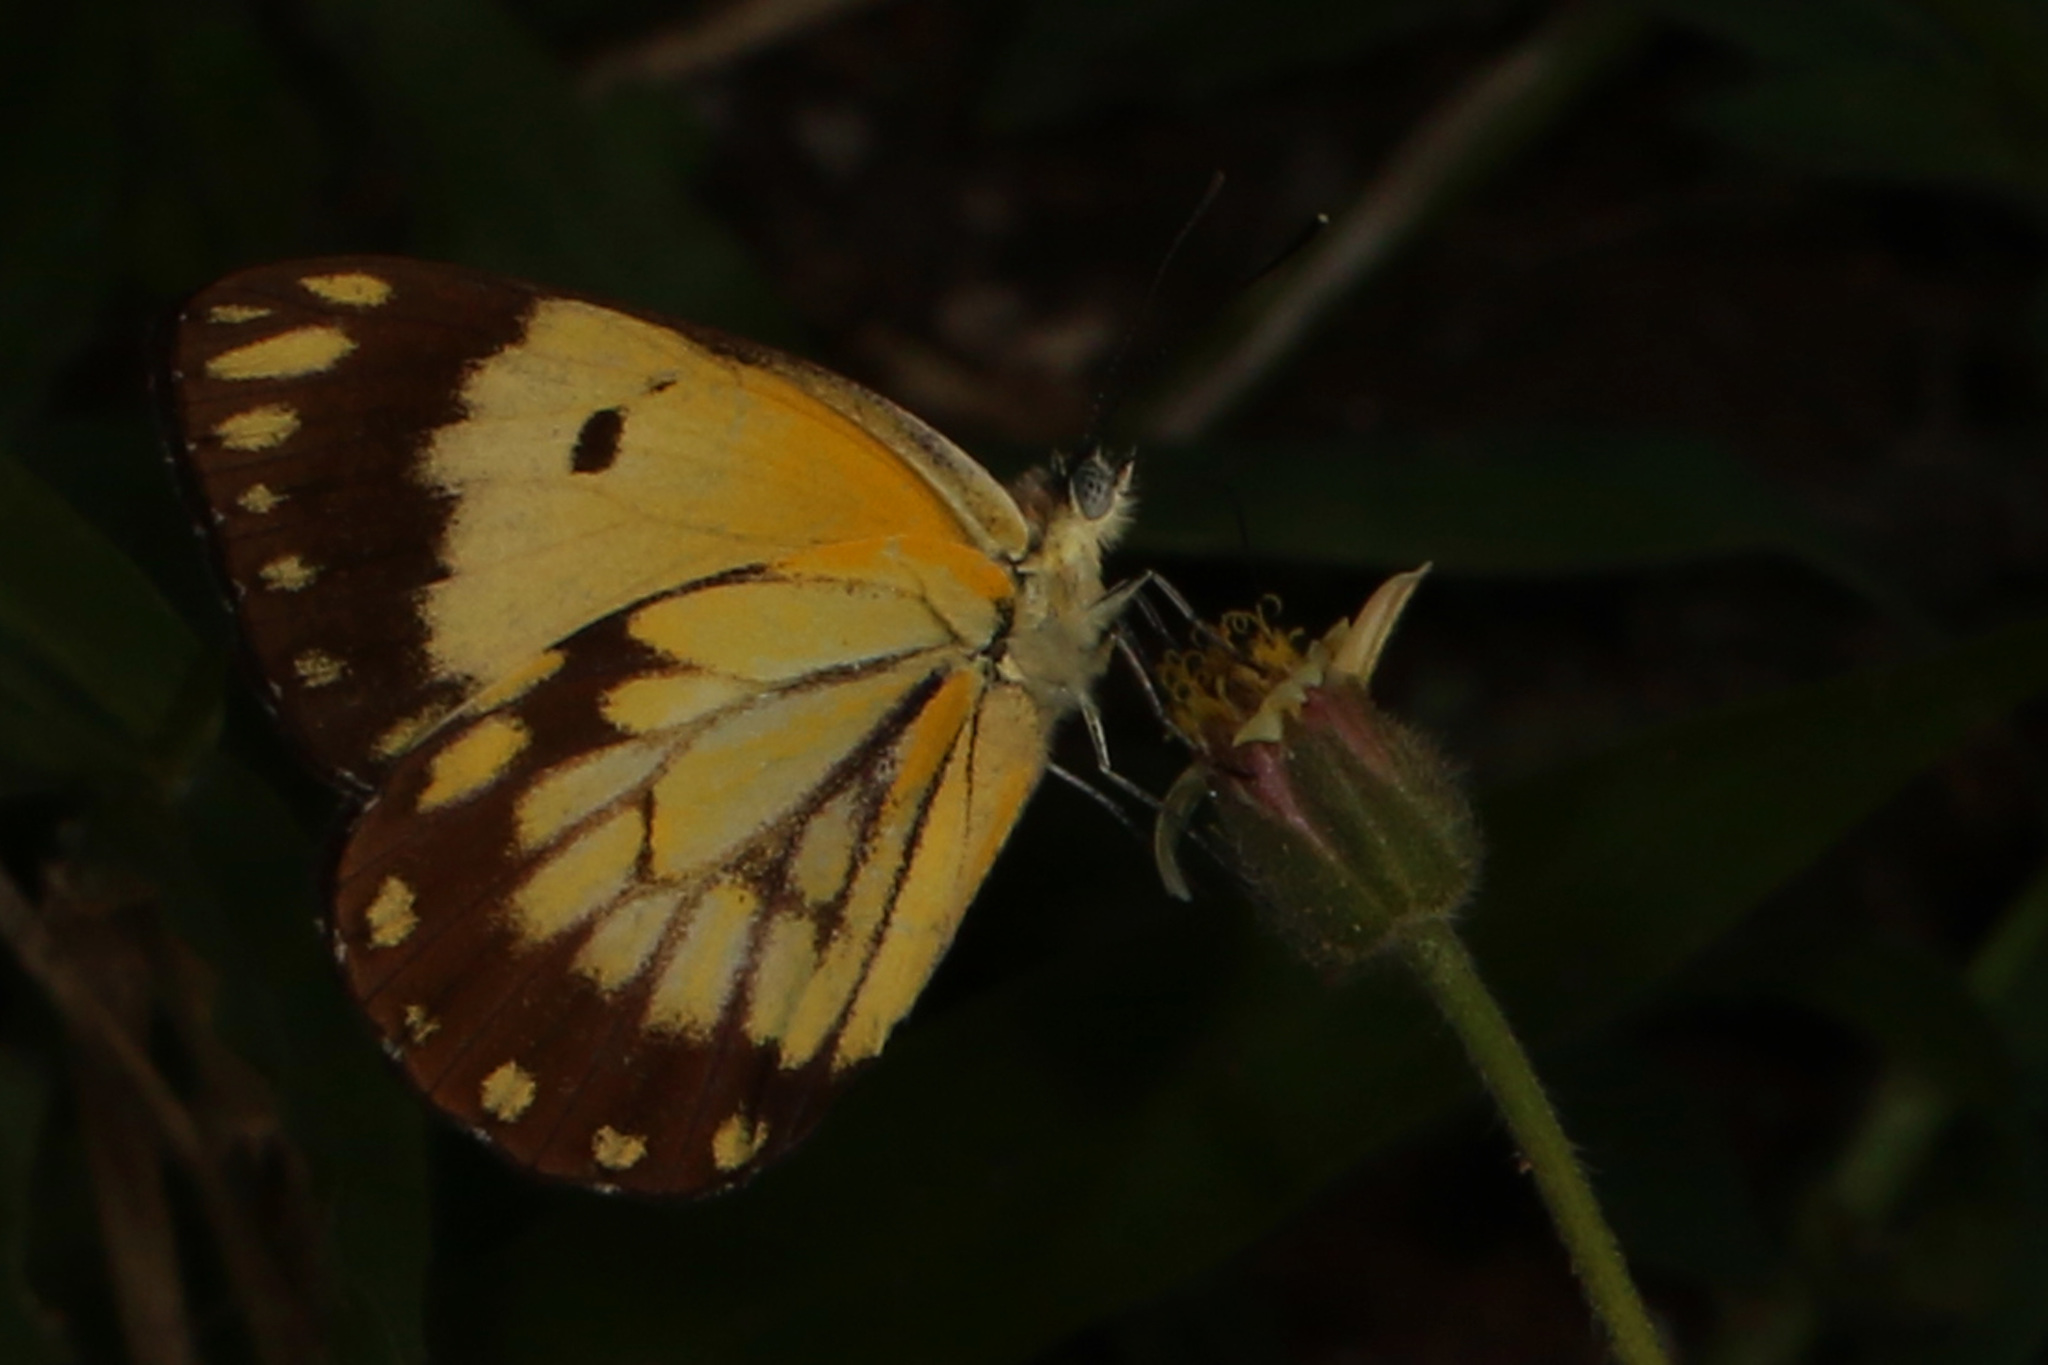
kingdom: Animalia
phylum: Arthropoda
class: Insecta
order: Lepidoptera
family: Pieridae
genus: Belenois
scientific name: Belenois creona
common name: African caper white
